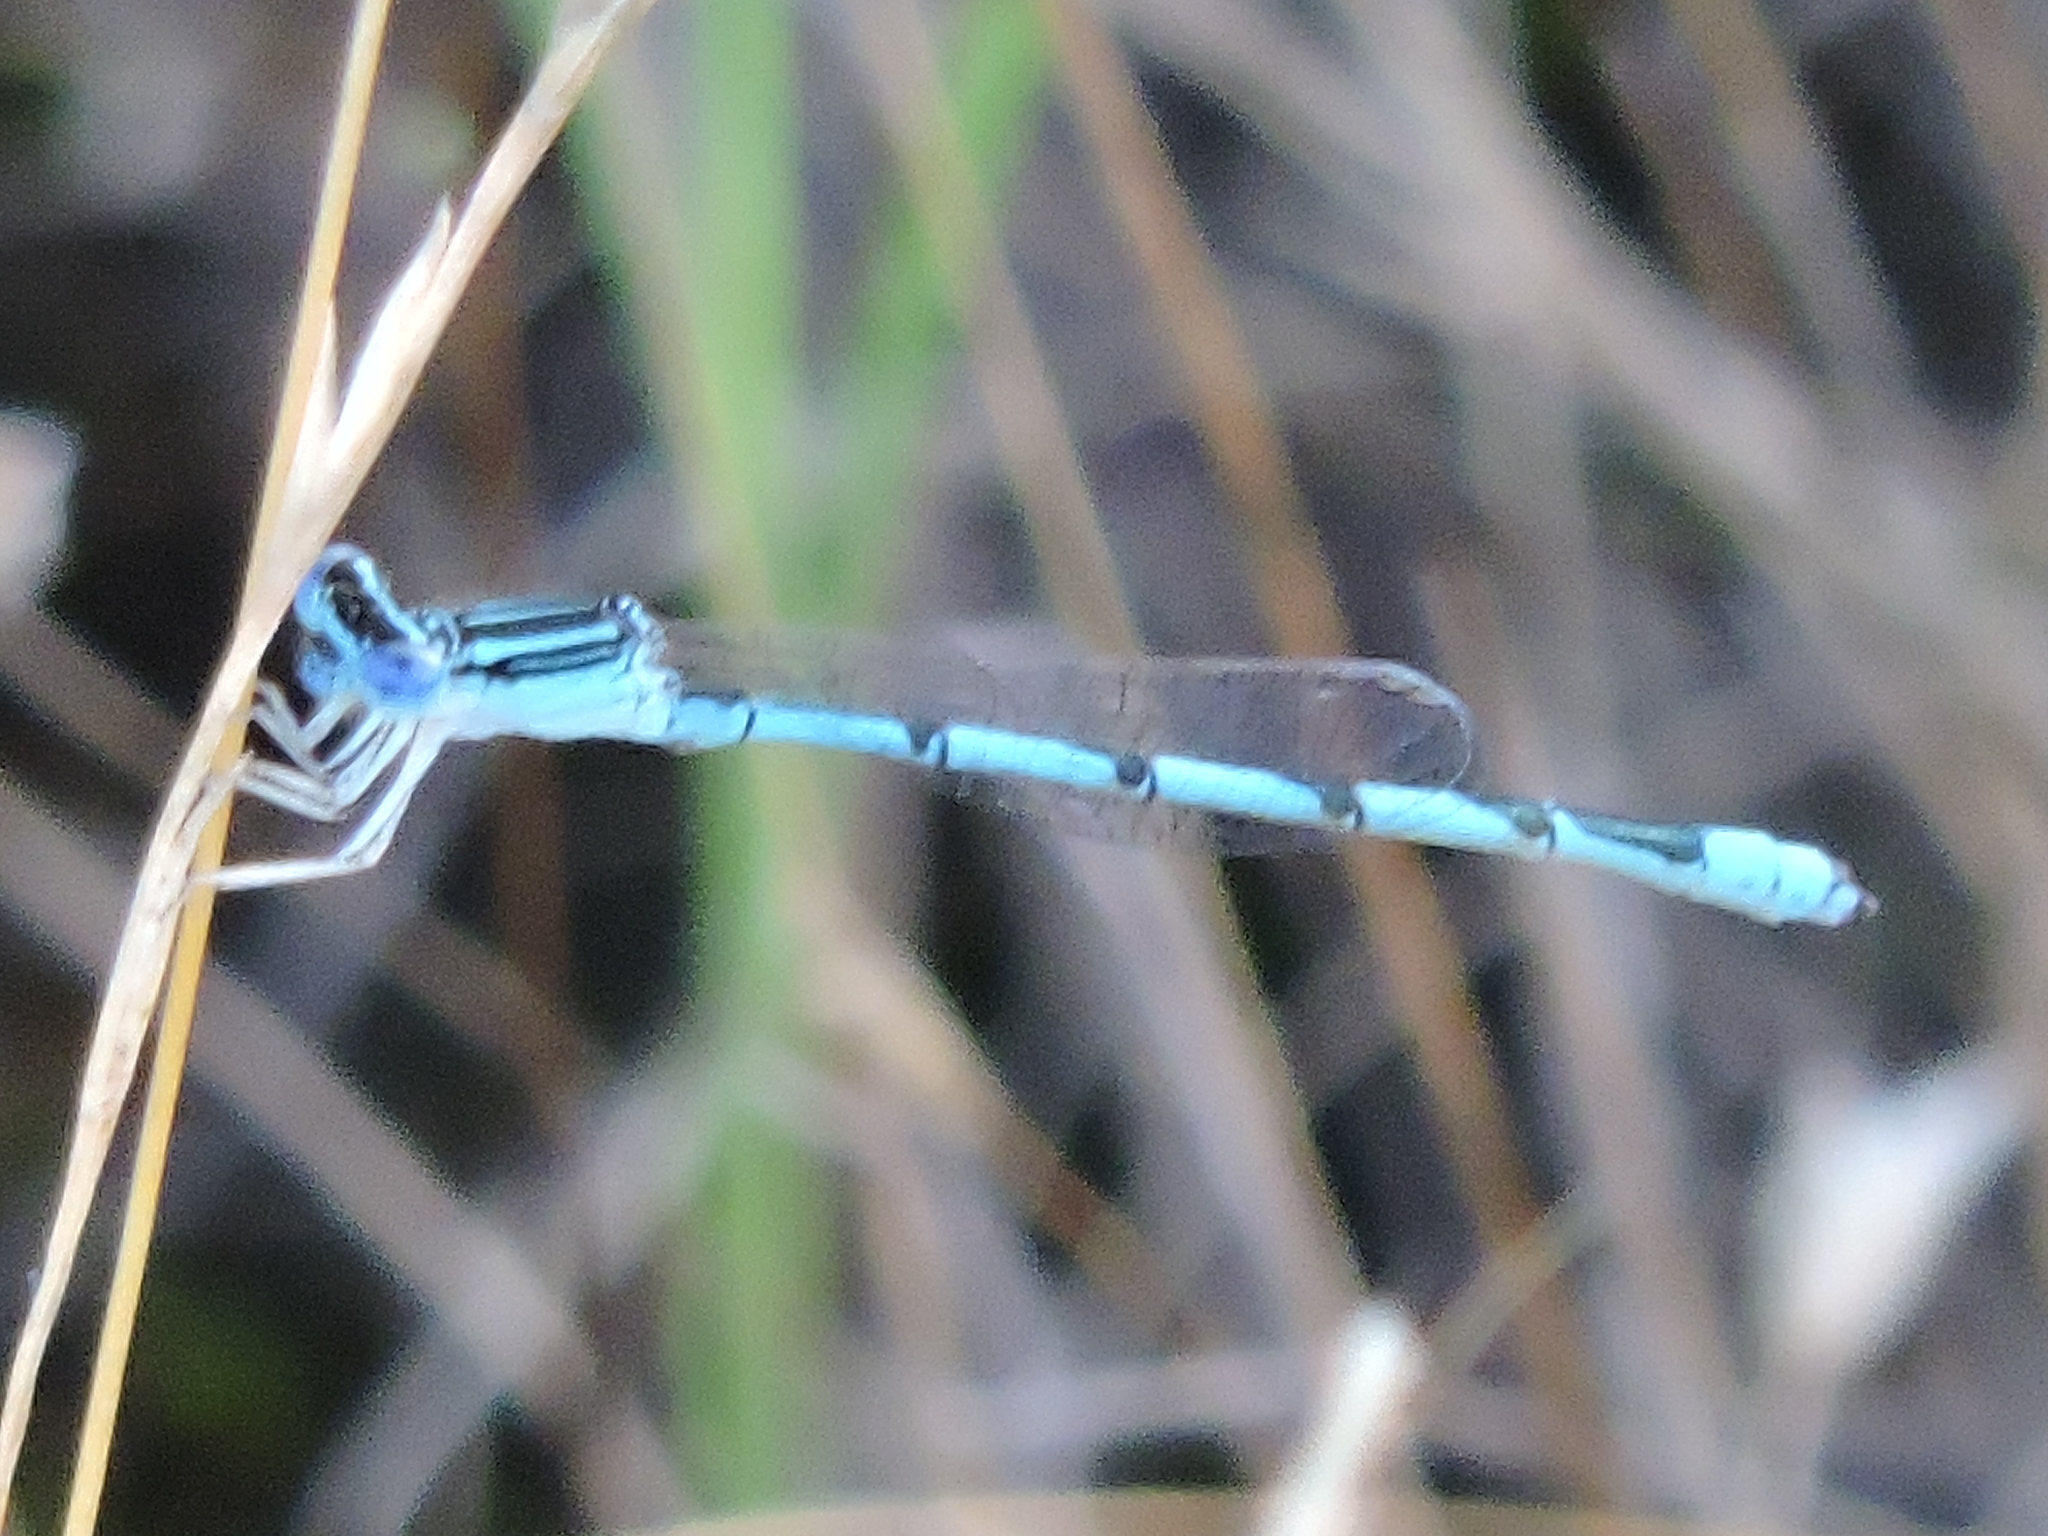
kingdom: Animalia
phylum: Arthropoda
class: Insecta
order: Odonata
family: Coenagrionidae
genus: Enallagma
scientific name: Enallagma basidens
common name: Double-striped bluet
